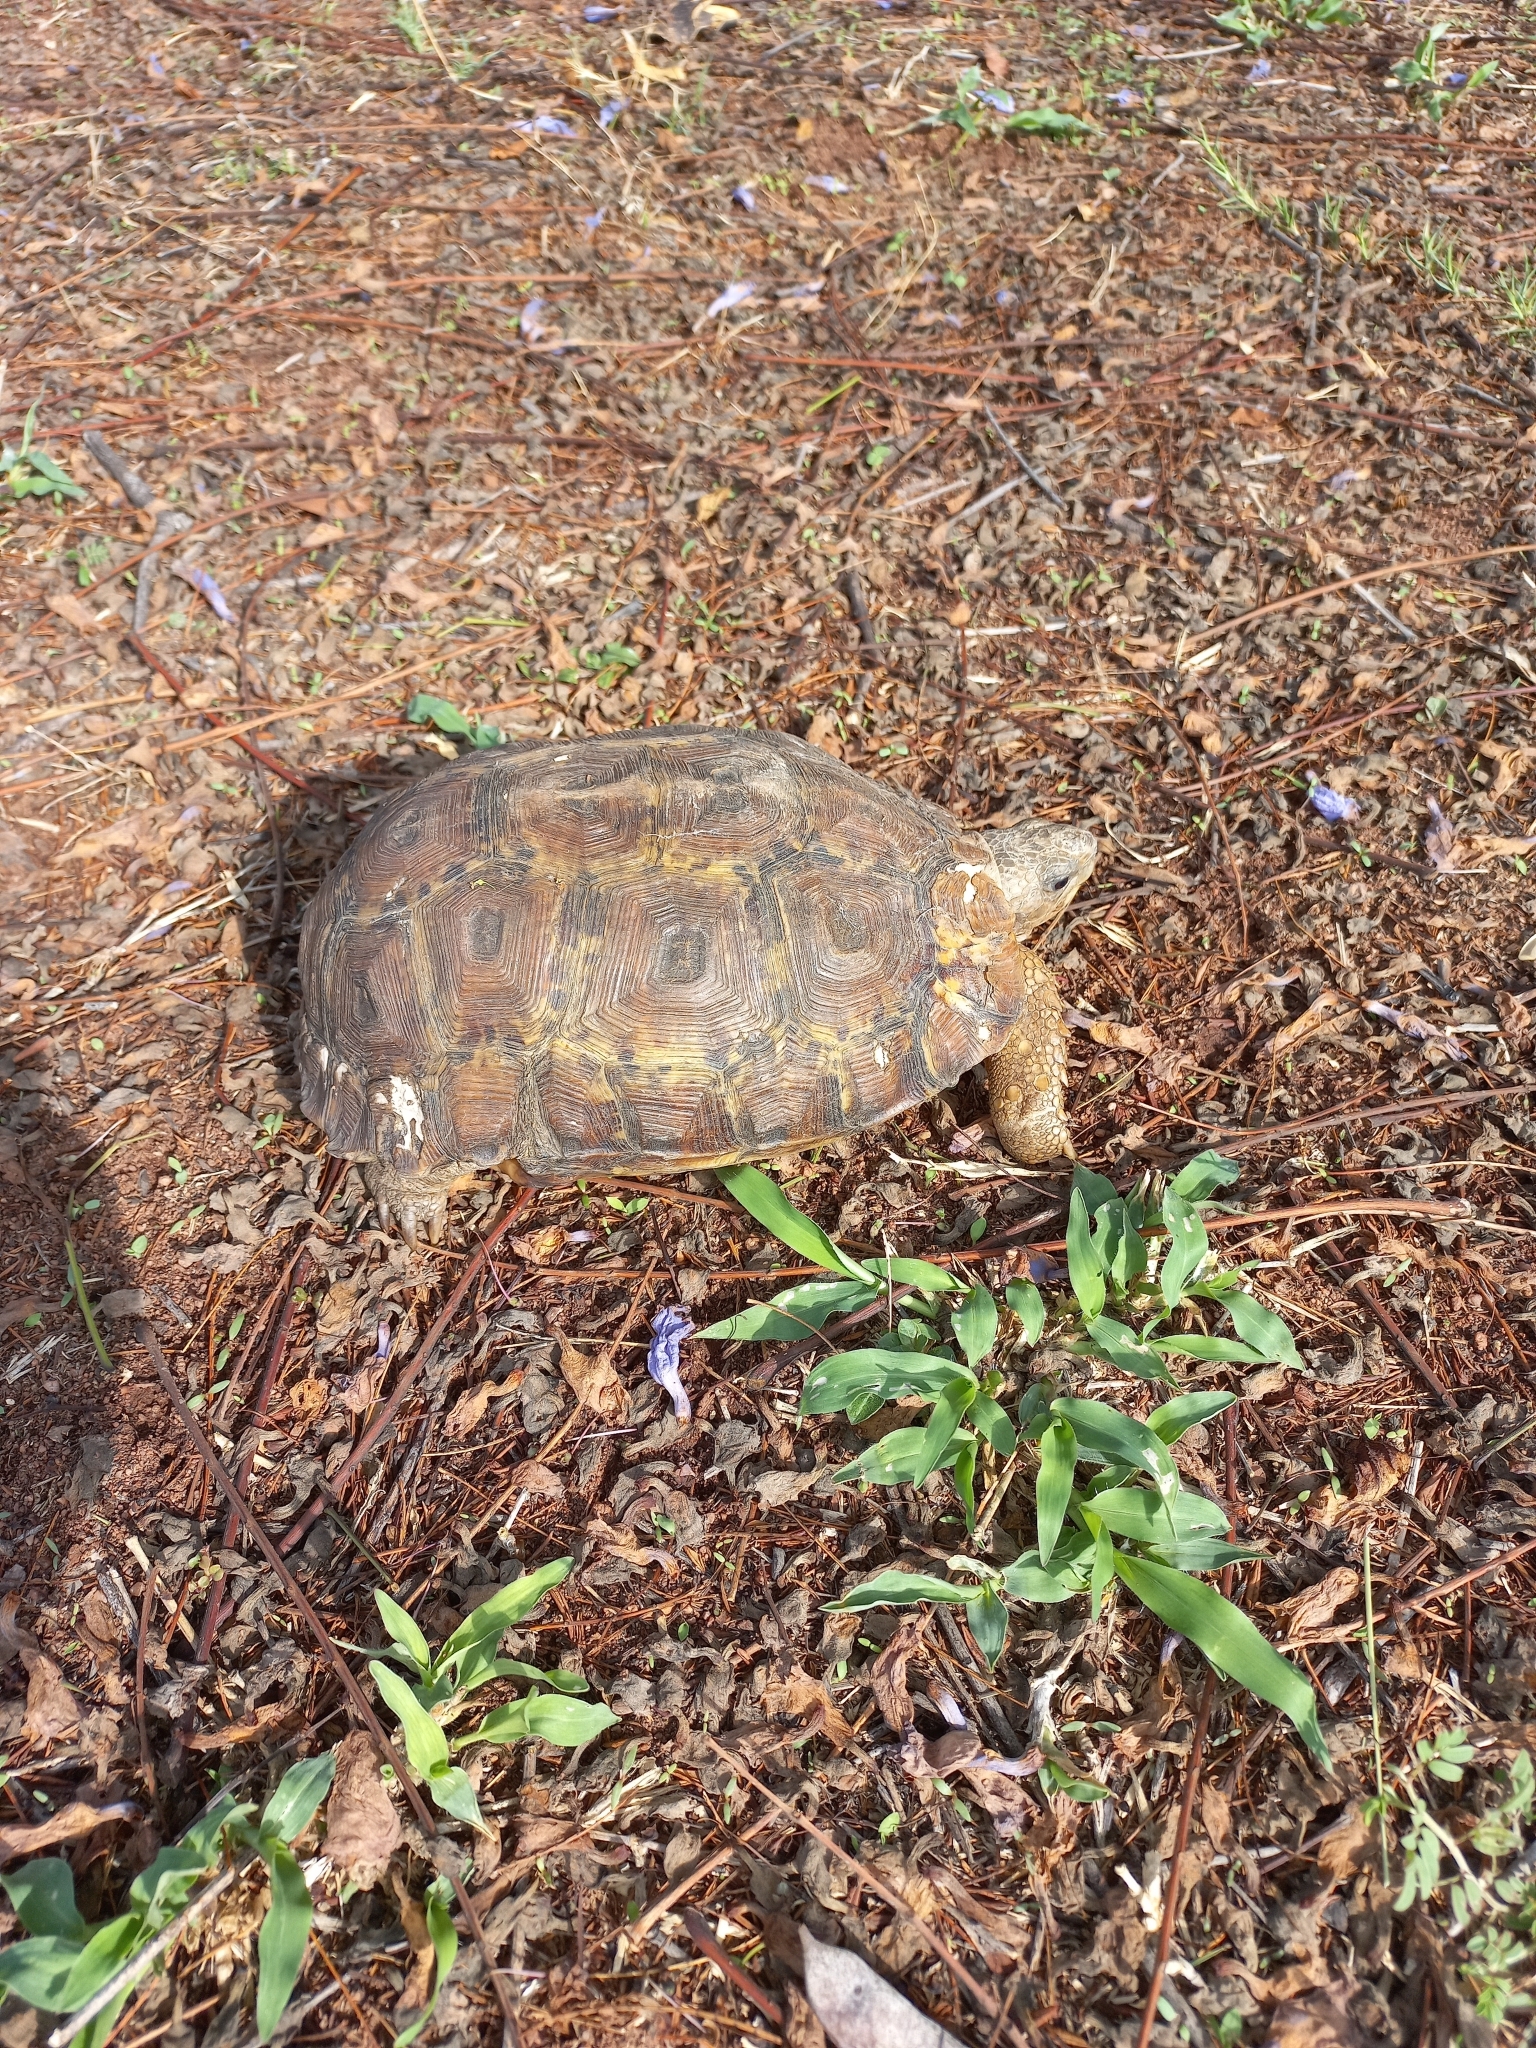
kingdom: Animalia
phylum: Chordata
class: Testudines
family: Testudinidae
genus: Kinixys
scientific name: Kinixys lobatsiana
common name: Lobatse hinge-back tortoise
